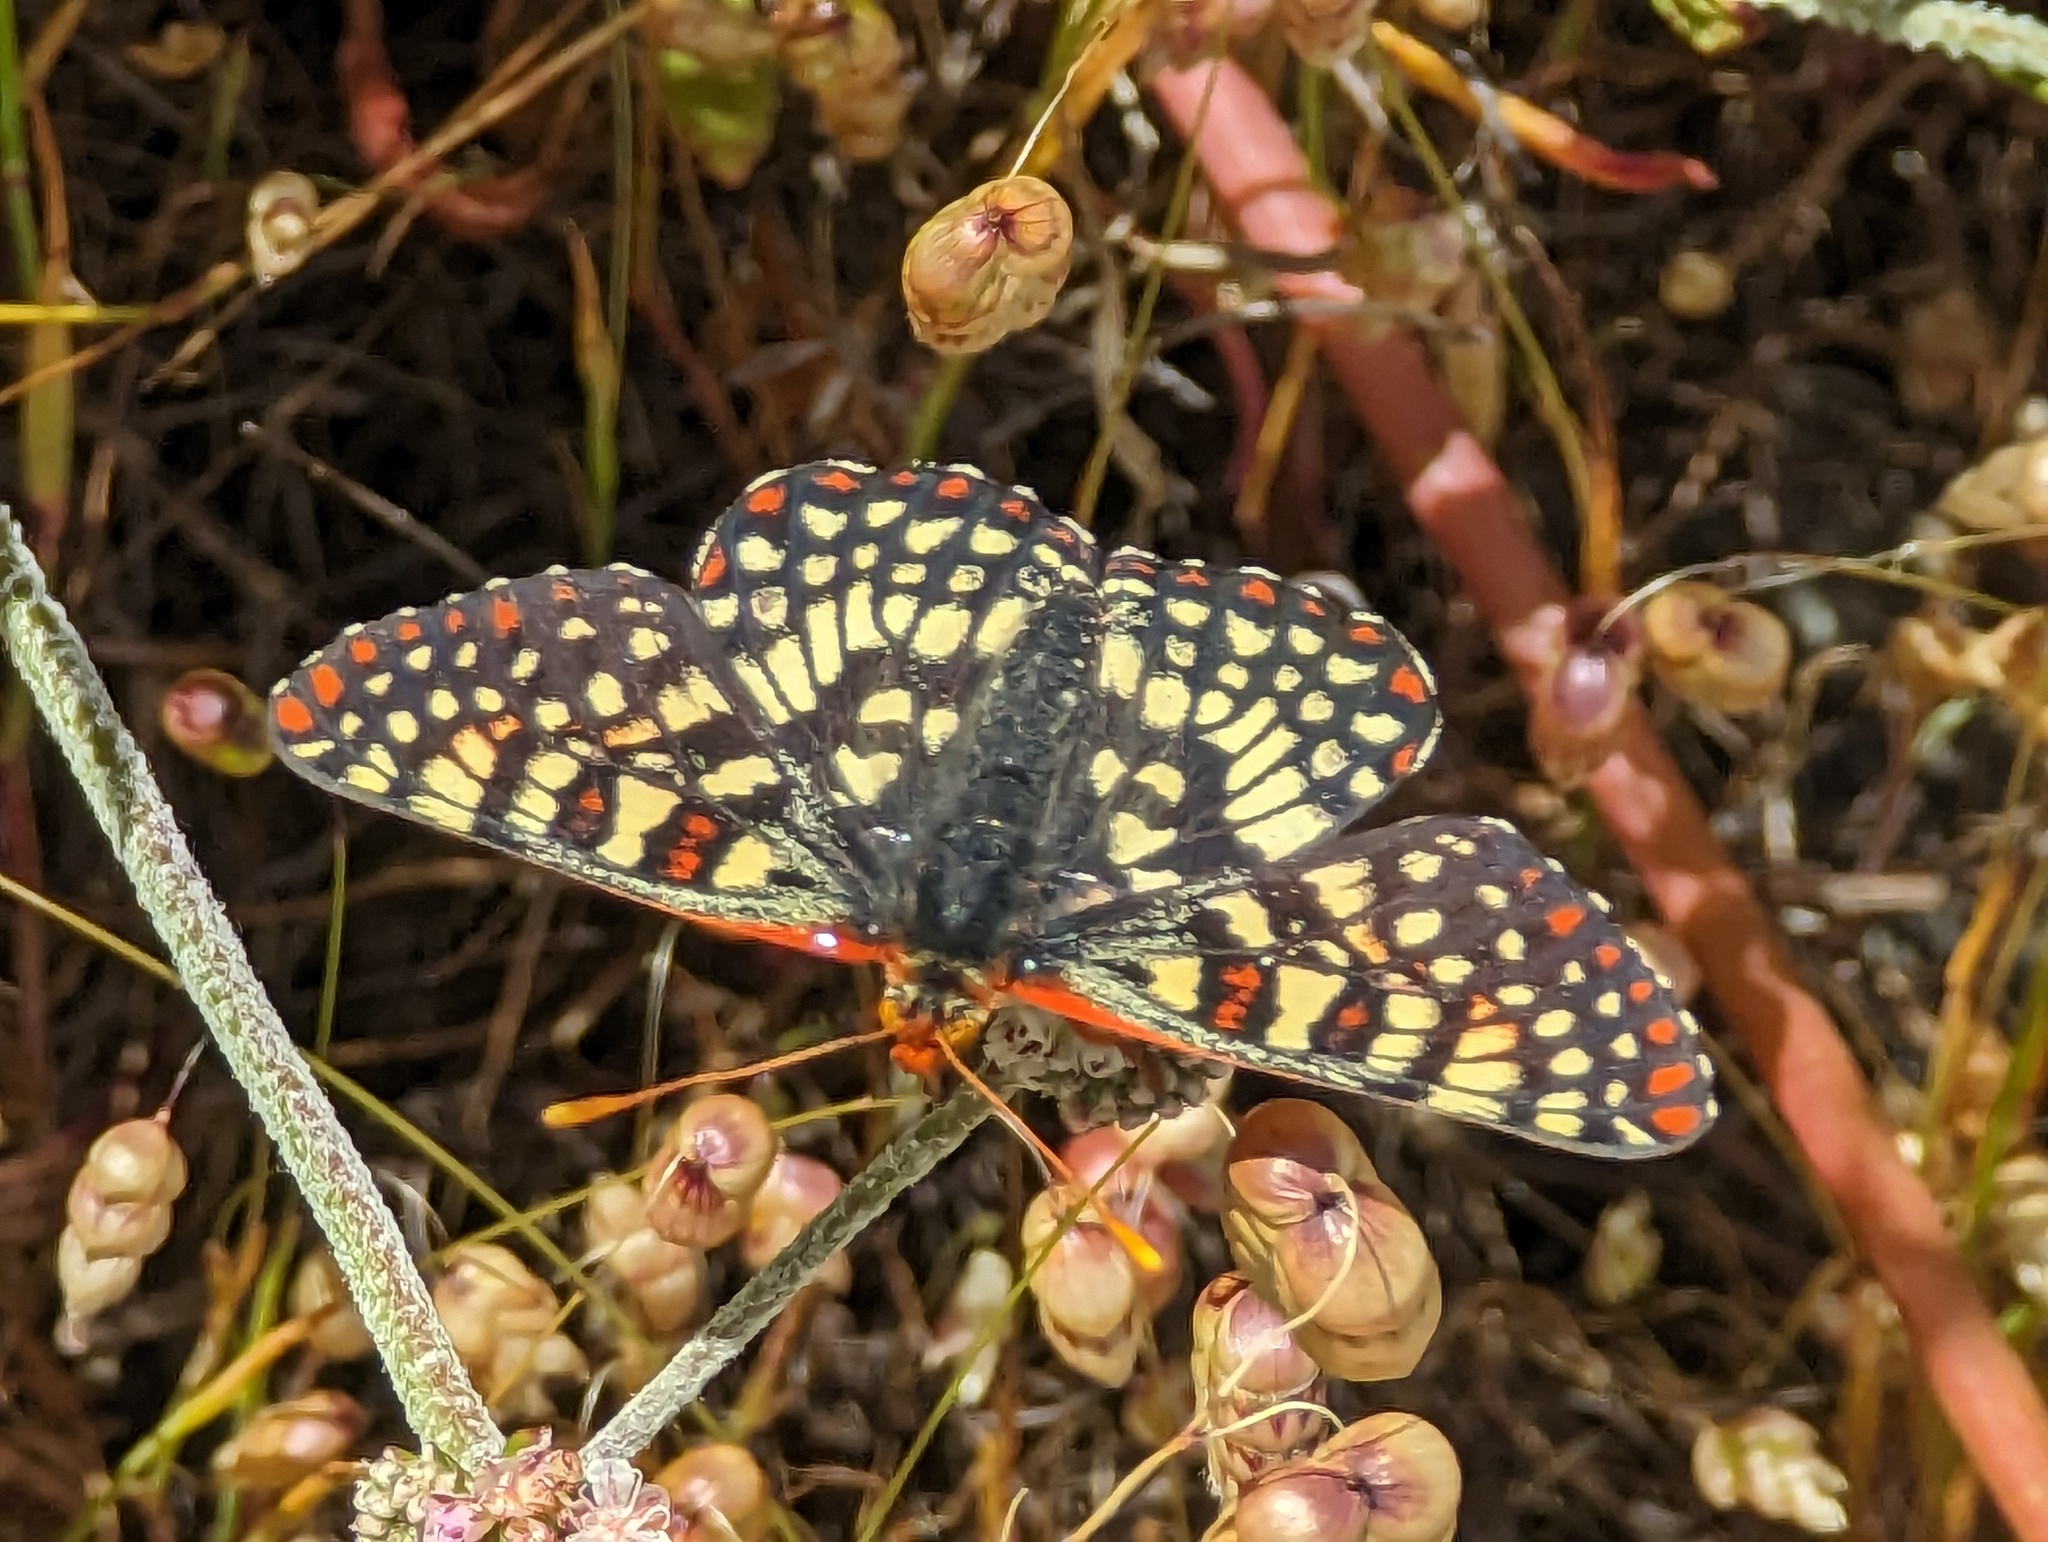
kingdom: Animalia
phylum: Arthropoda
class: Insecta
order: Lepidoptera
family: Nymphalidae
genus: Occidryas
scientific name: Occidryas chalcedona
